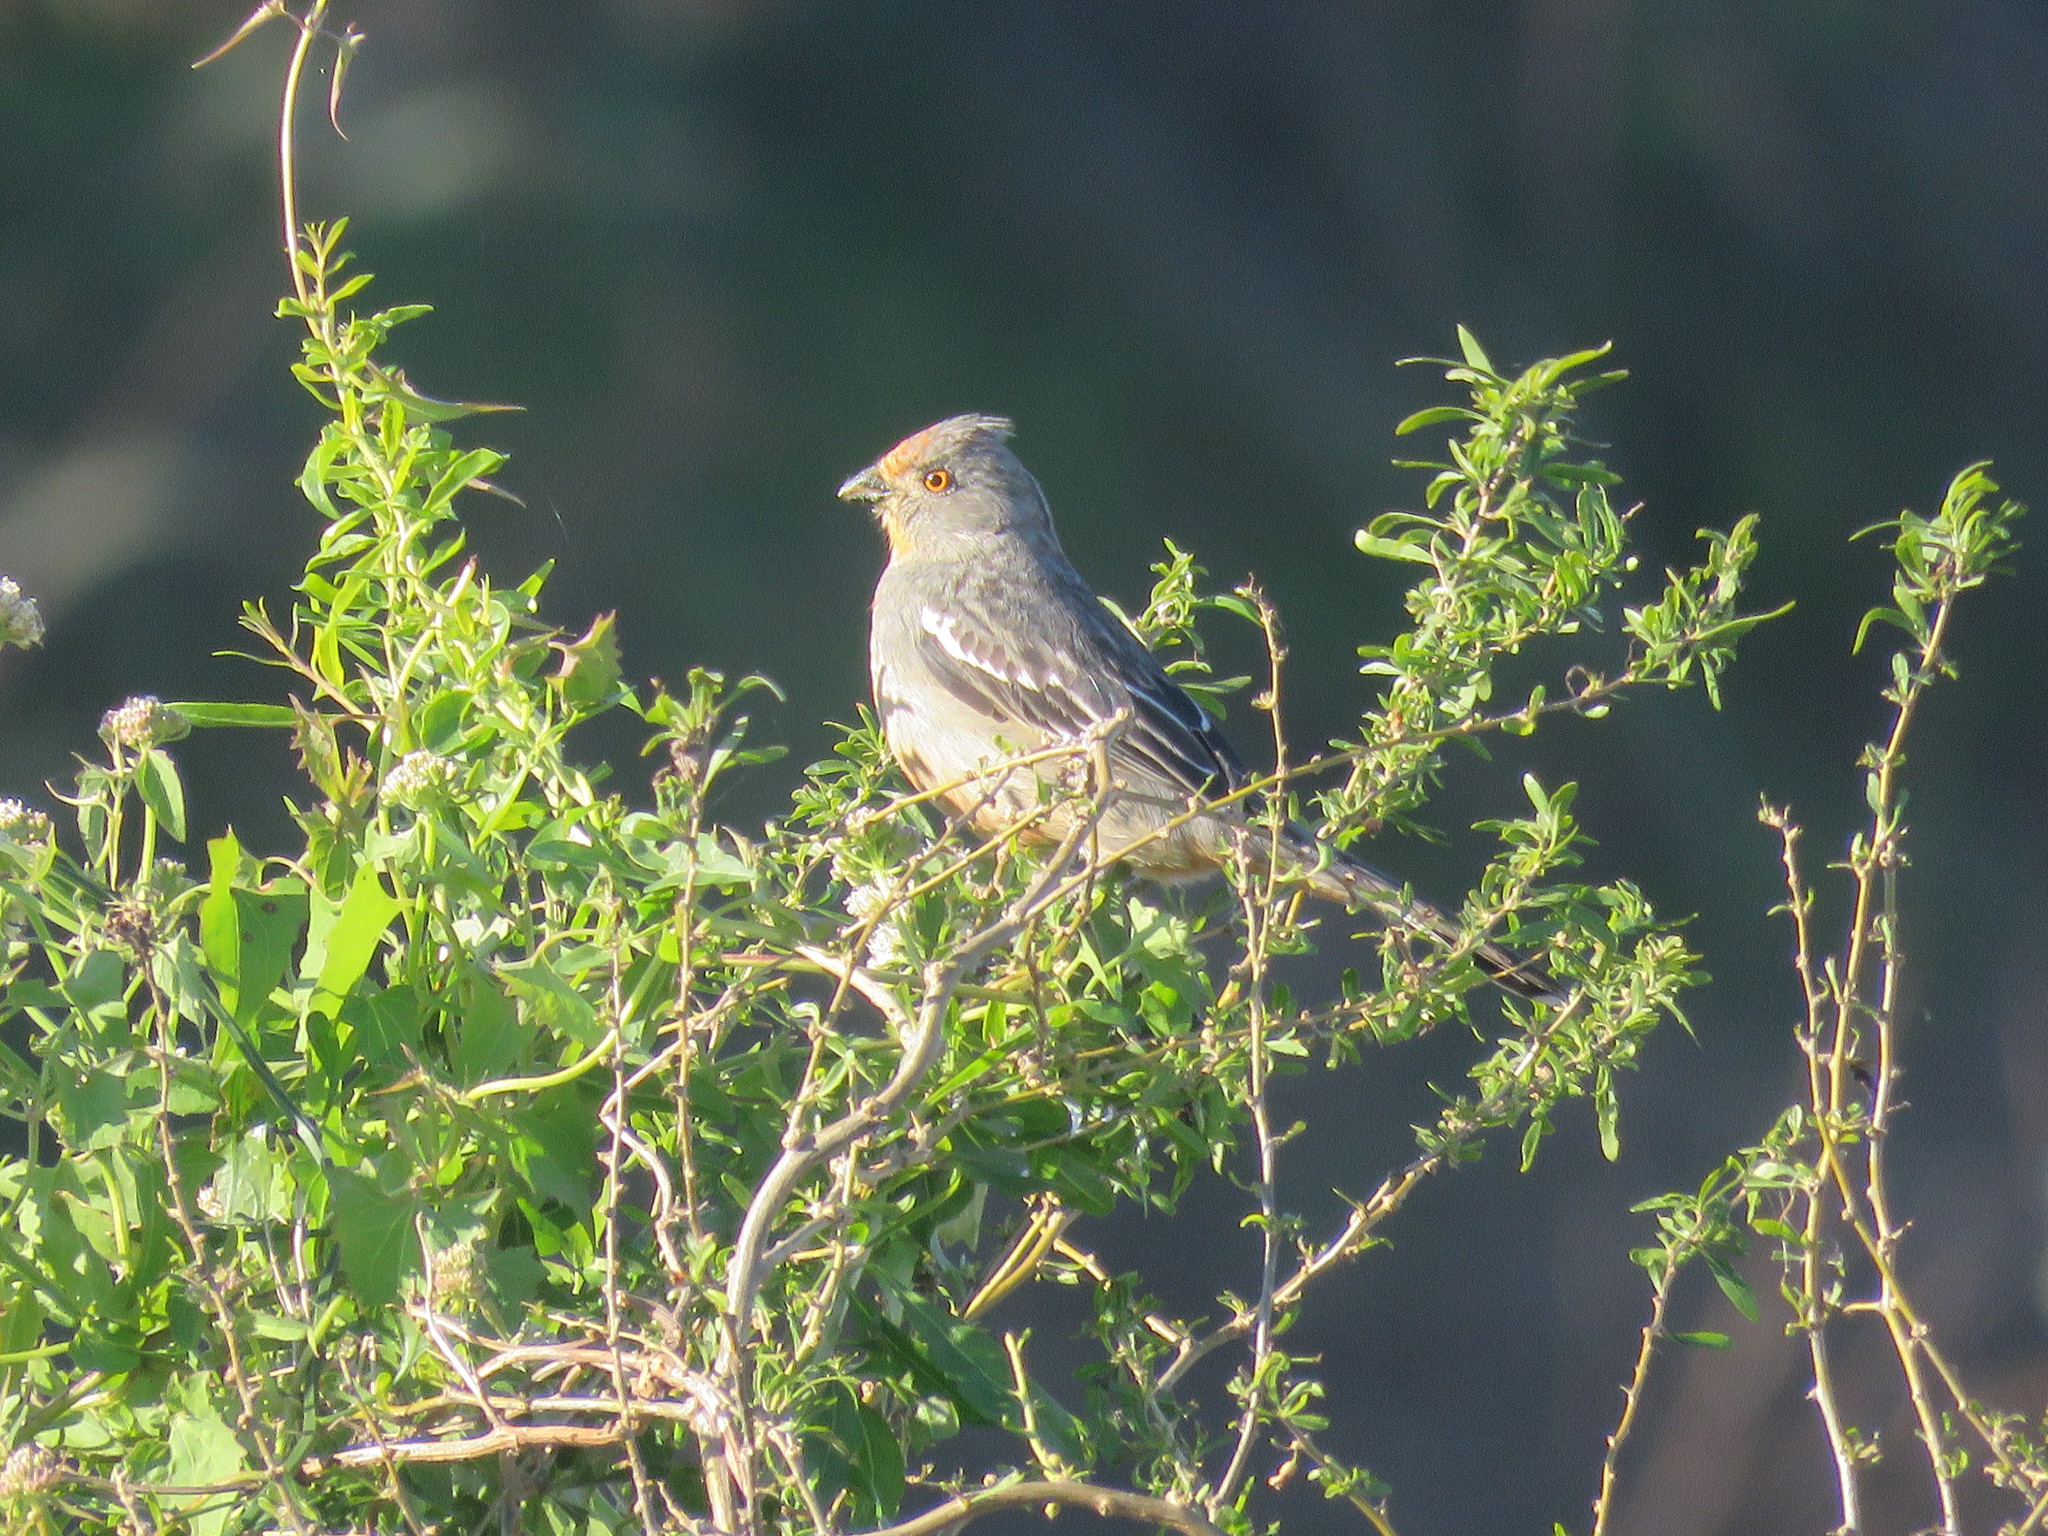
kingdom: Animalia
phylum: Chordata
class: Aves
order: Passeriformes
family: Cotingidae
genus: Phytotoma
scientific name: Phytotoma rutila
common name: White-tipped plantcutter
